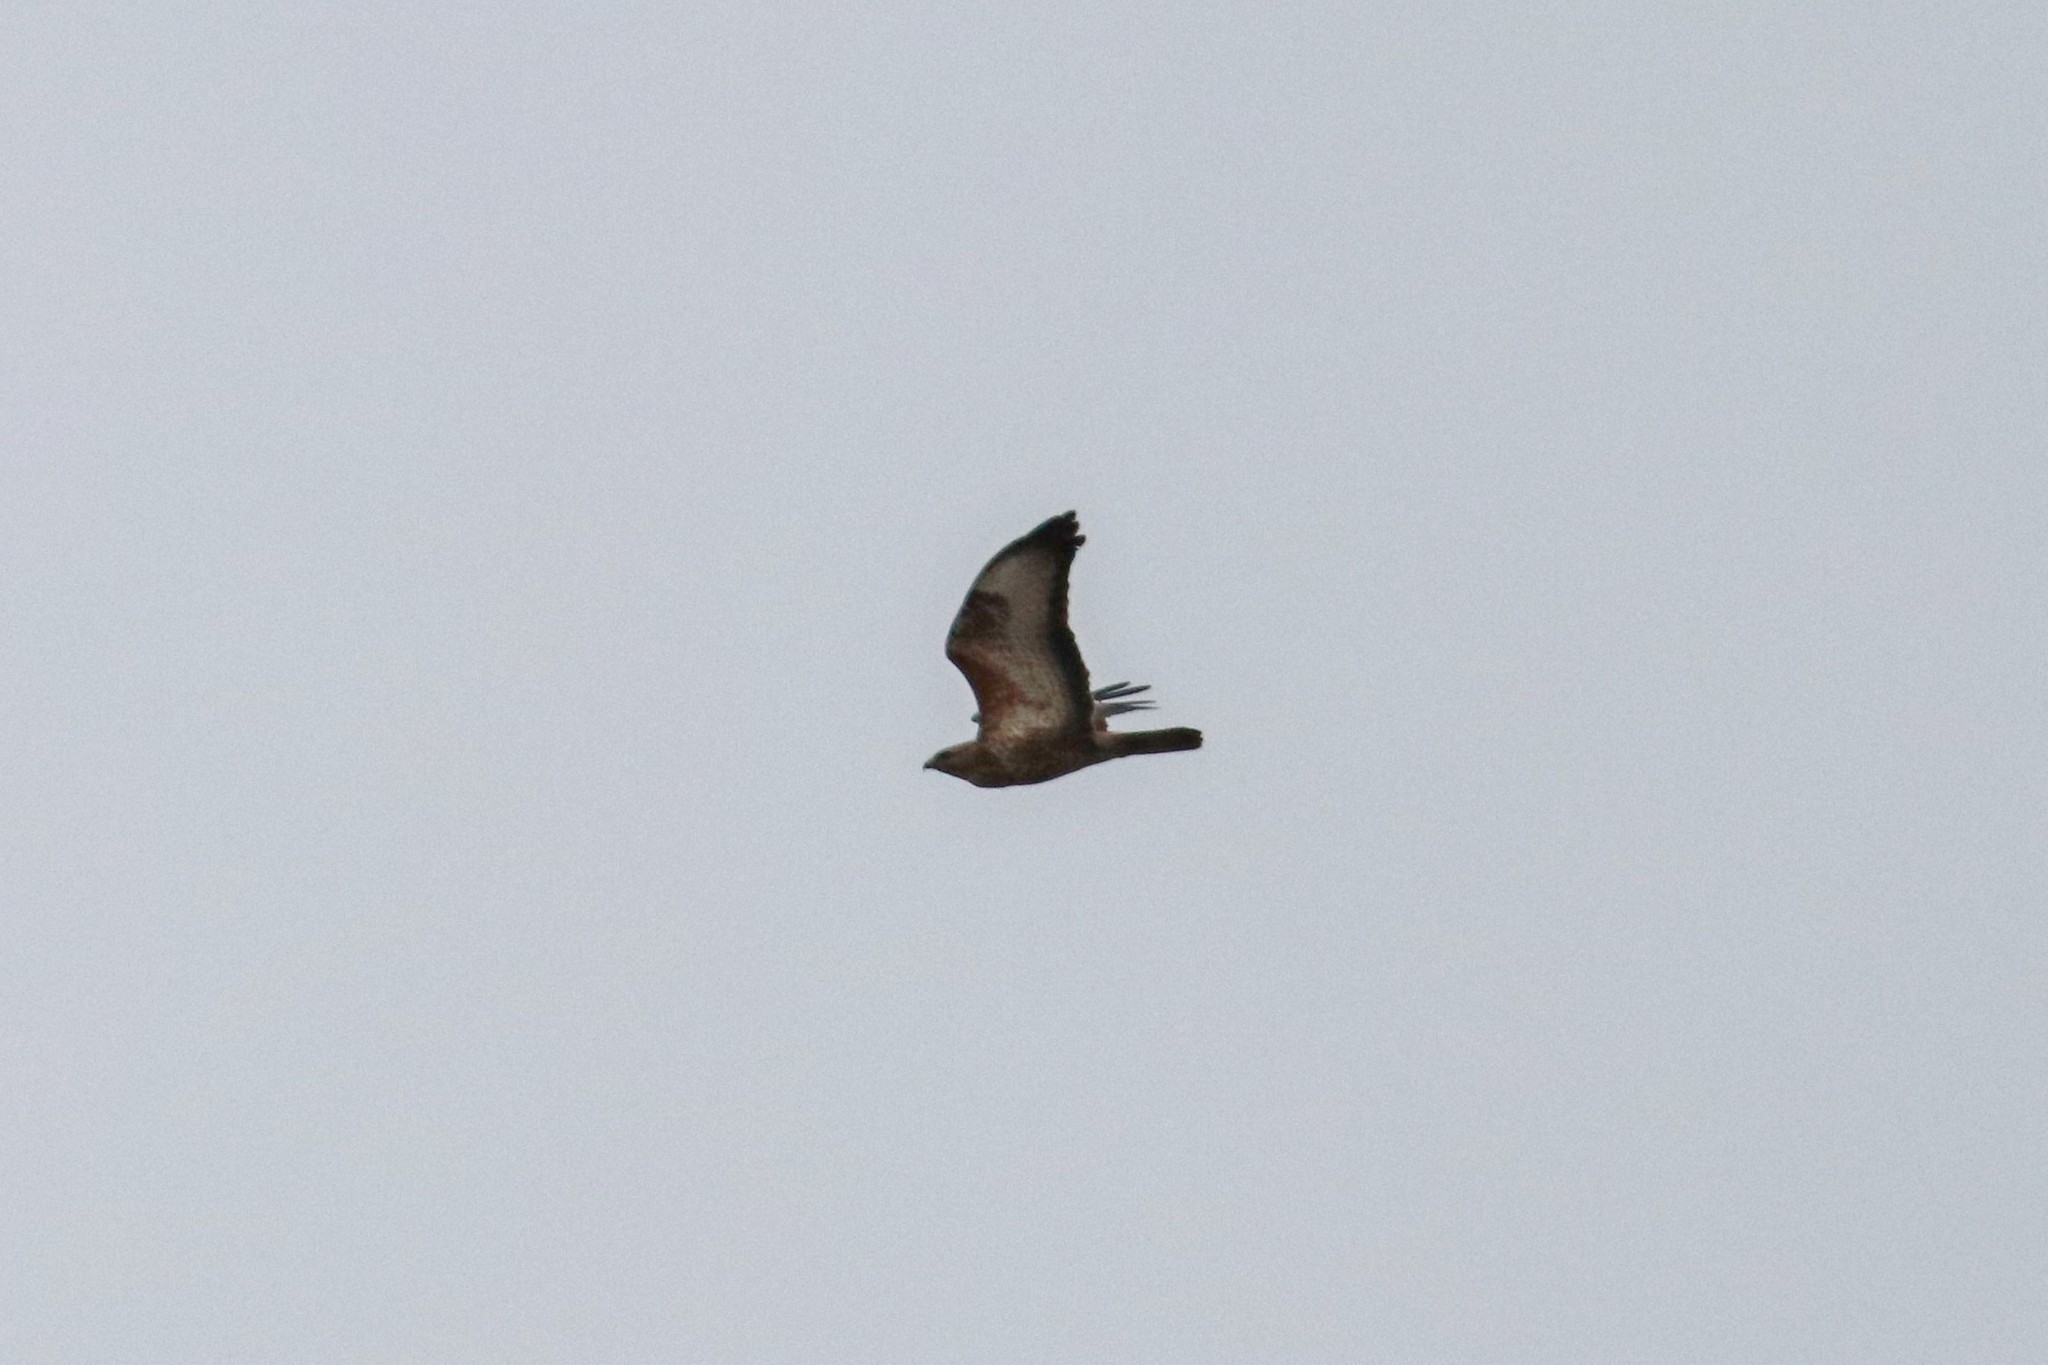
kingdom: Animalia
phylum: Chordata
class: Aves
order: Accipitriformes
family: Accipitridae
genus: Buteo
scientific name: Buteo buteo
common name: Common buzzard
